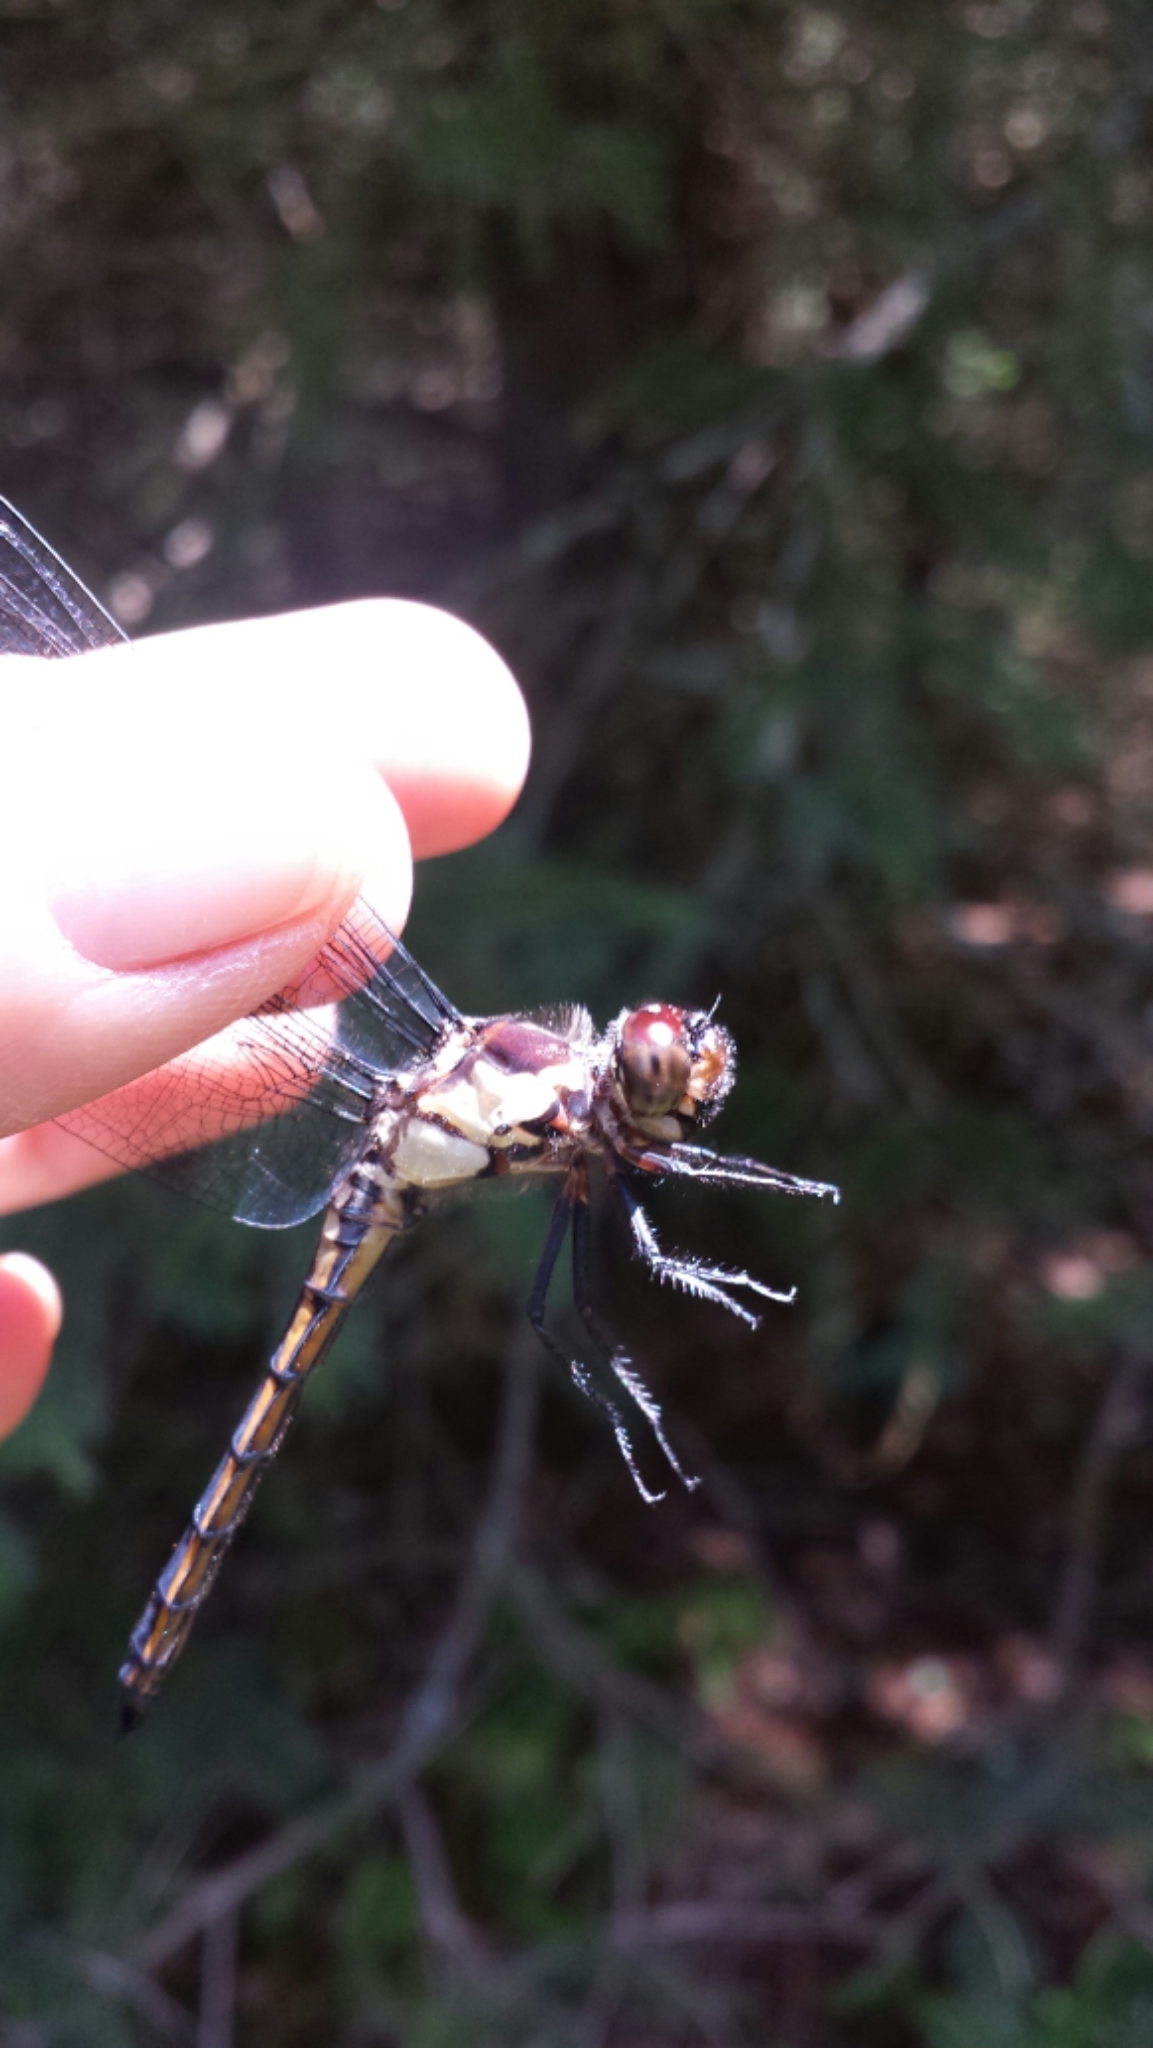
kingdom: Animalia
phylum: Arthropoda
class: Insecta
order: Odonata
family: Libellulidae
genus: Libellula
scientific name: Libellula incesta
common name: Slaty skimmer
